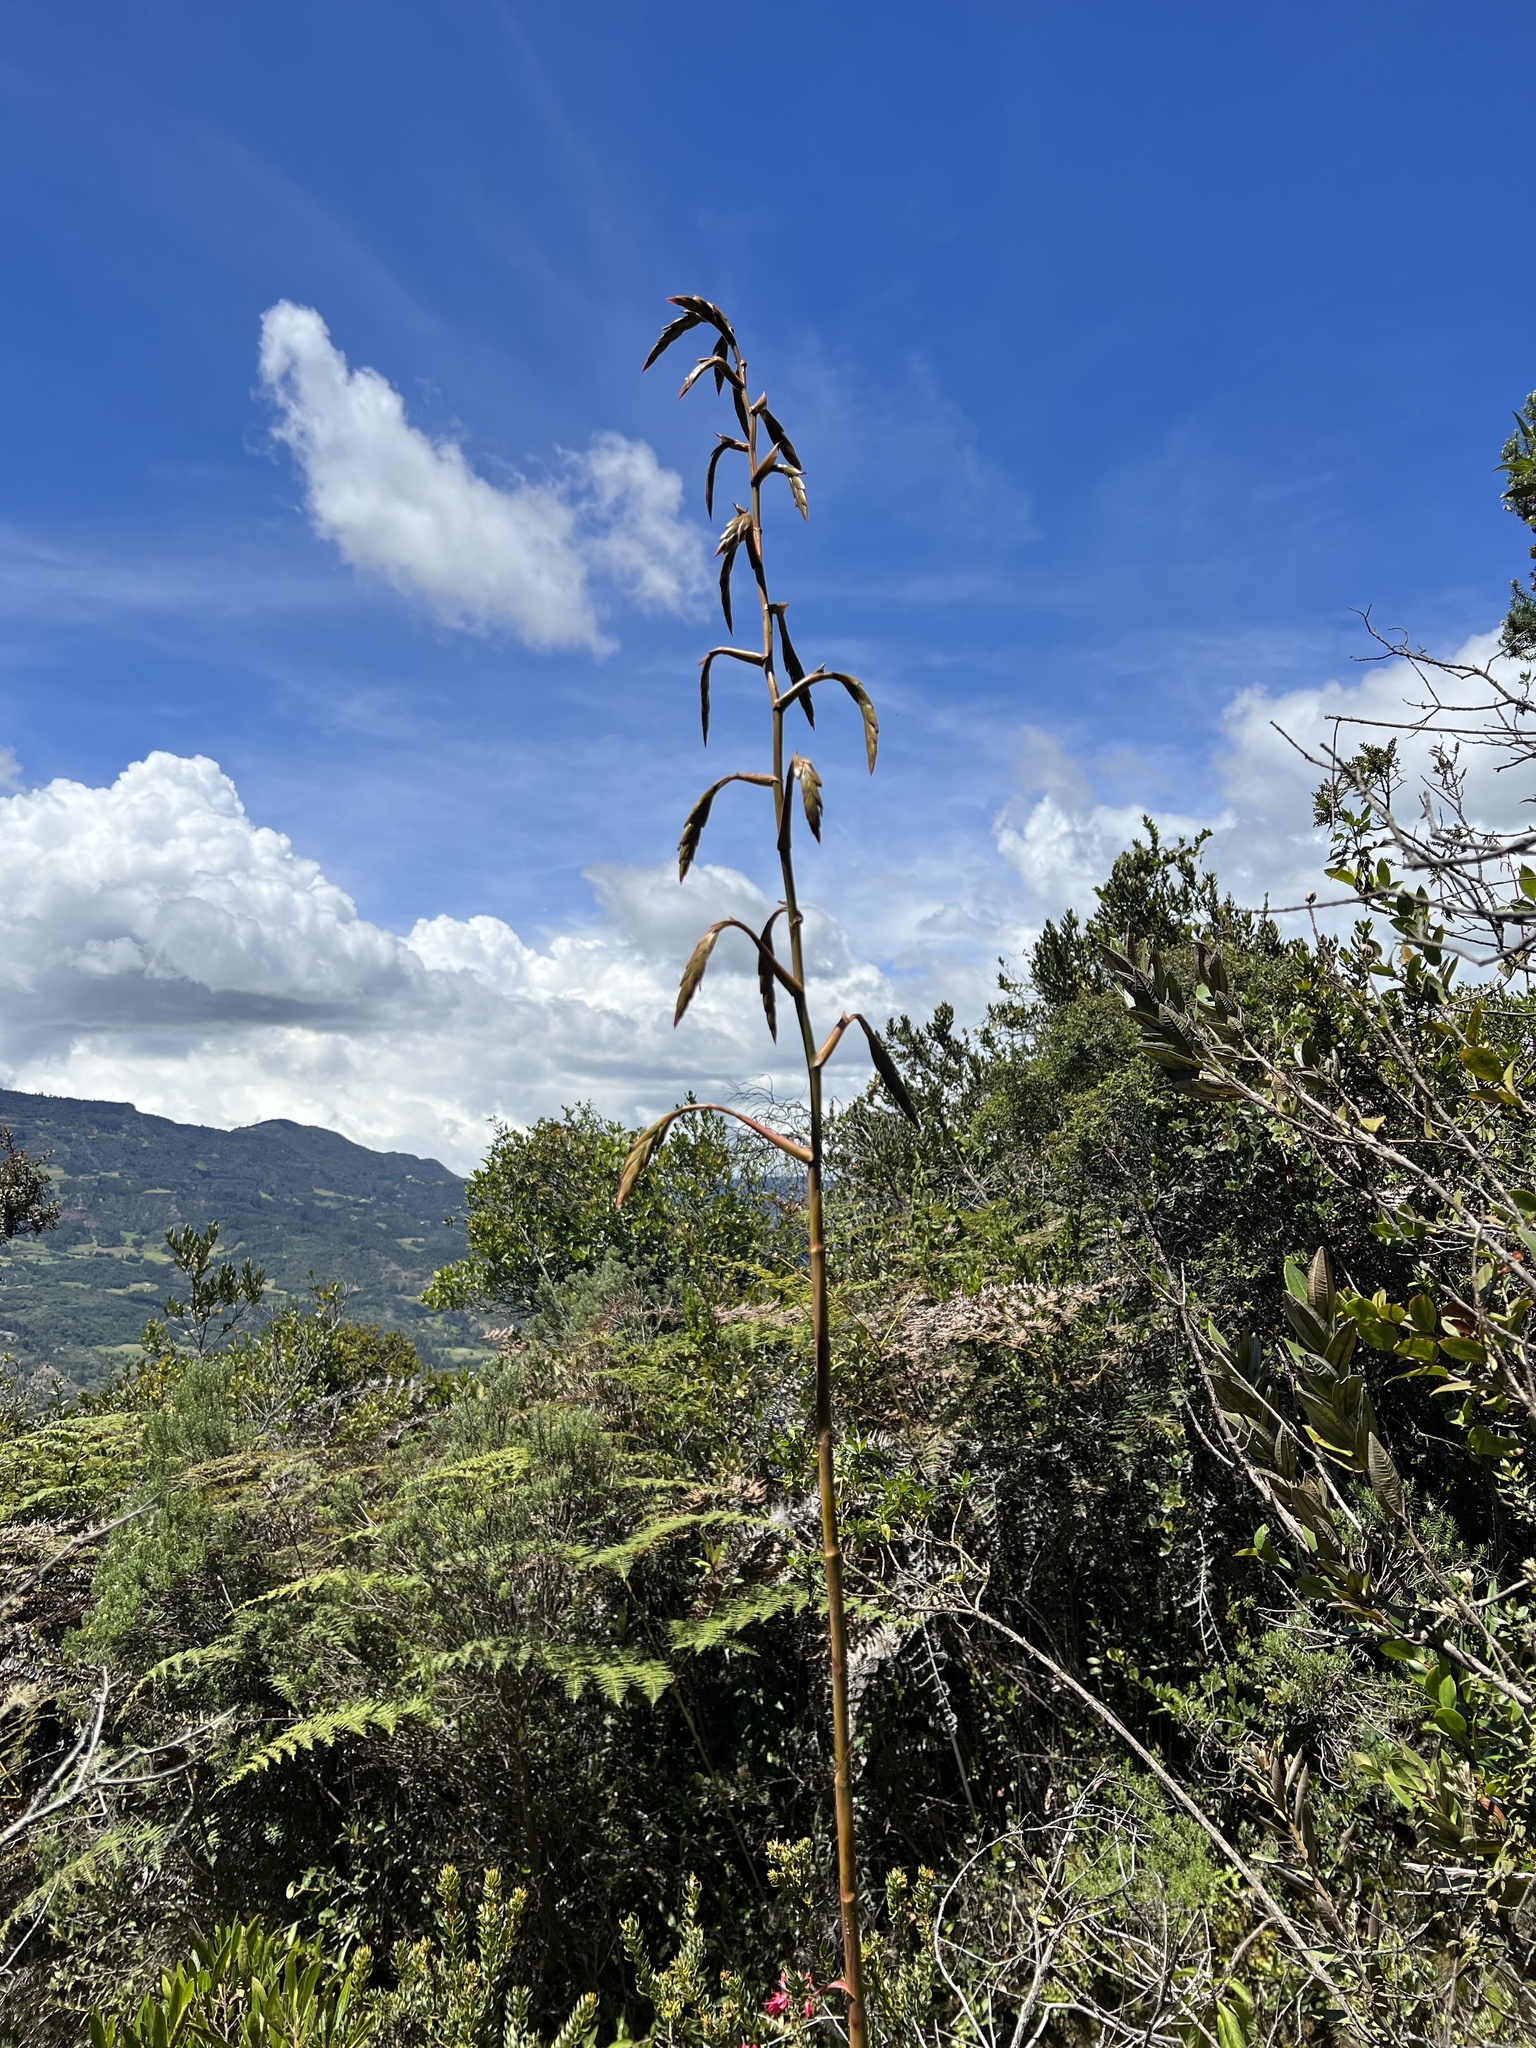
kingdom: Plantae
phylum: Tracheophyta
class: Liliopsida
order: Poales
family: Bromeliaceae
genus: Tillandsia
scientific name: Tillandsia denudata
